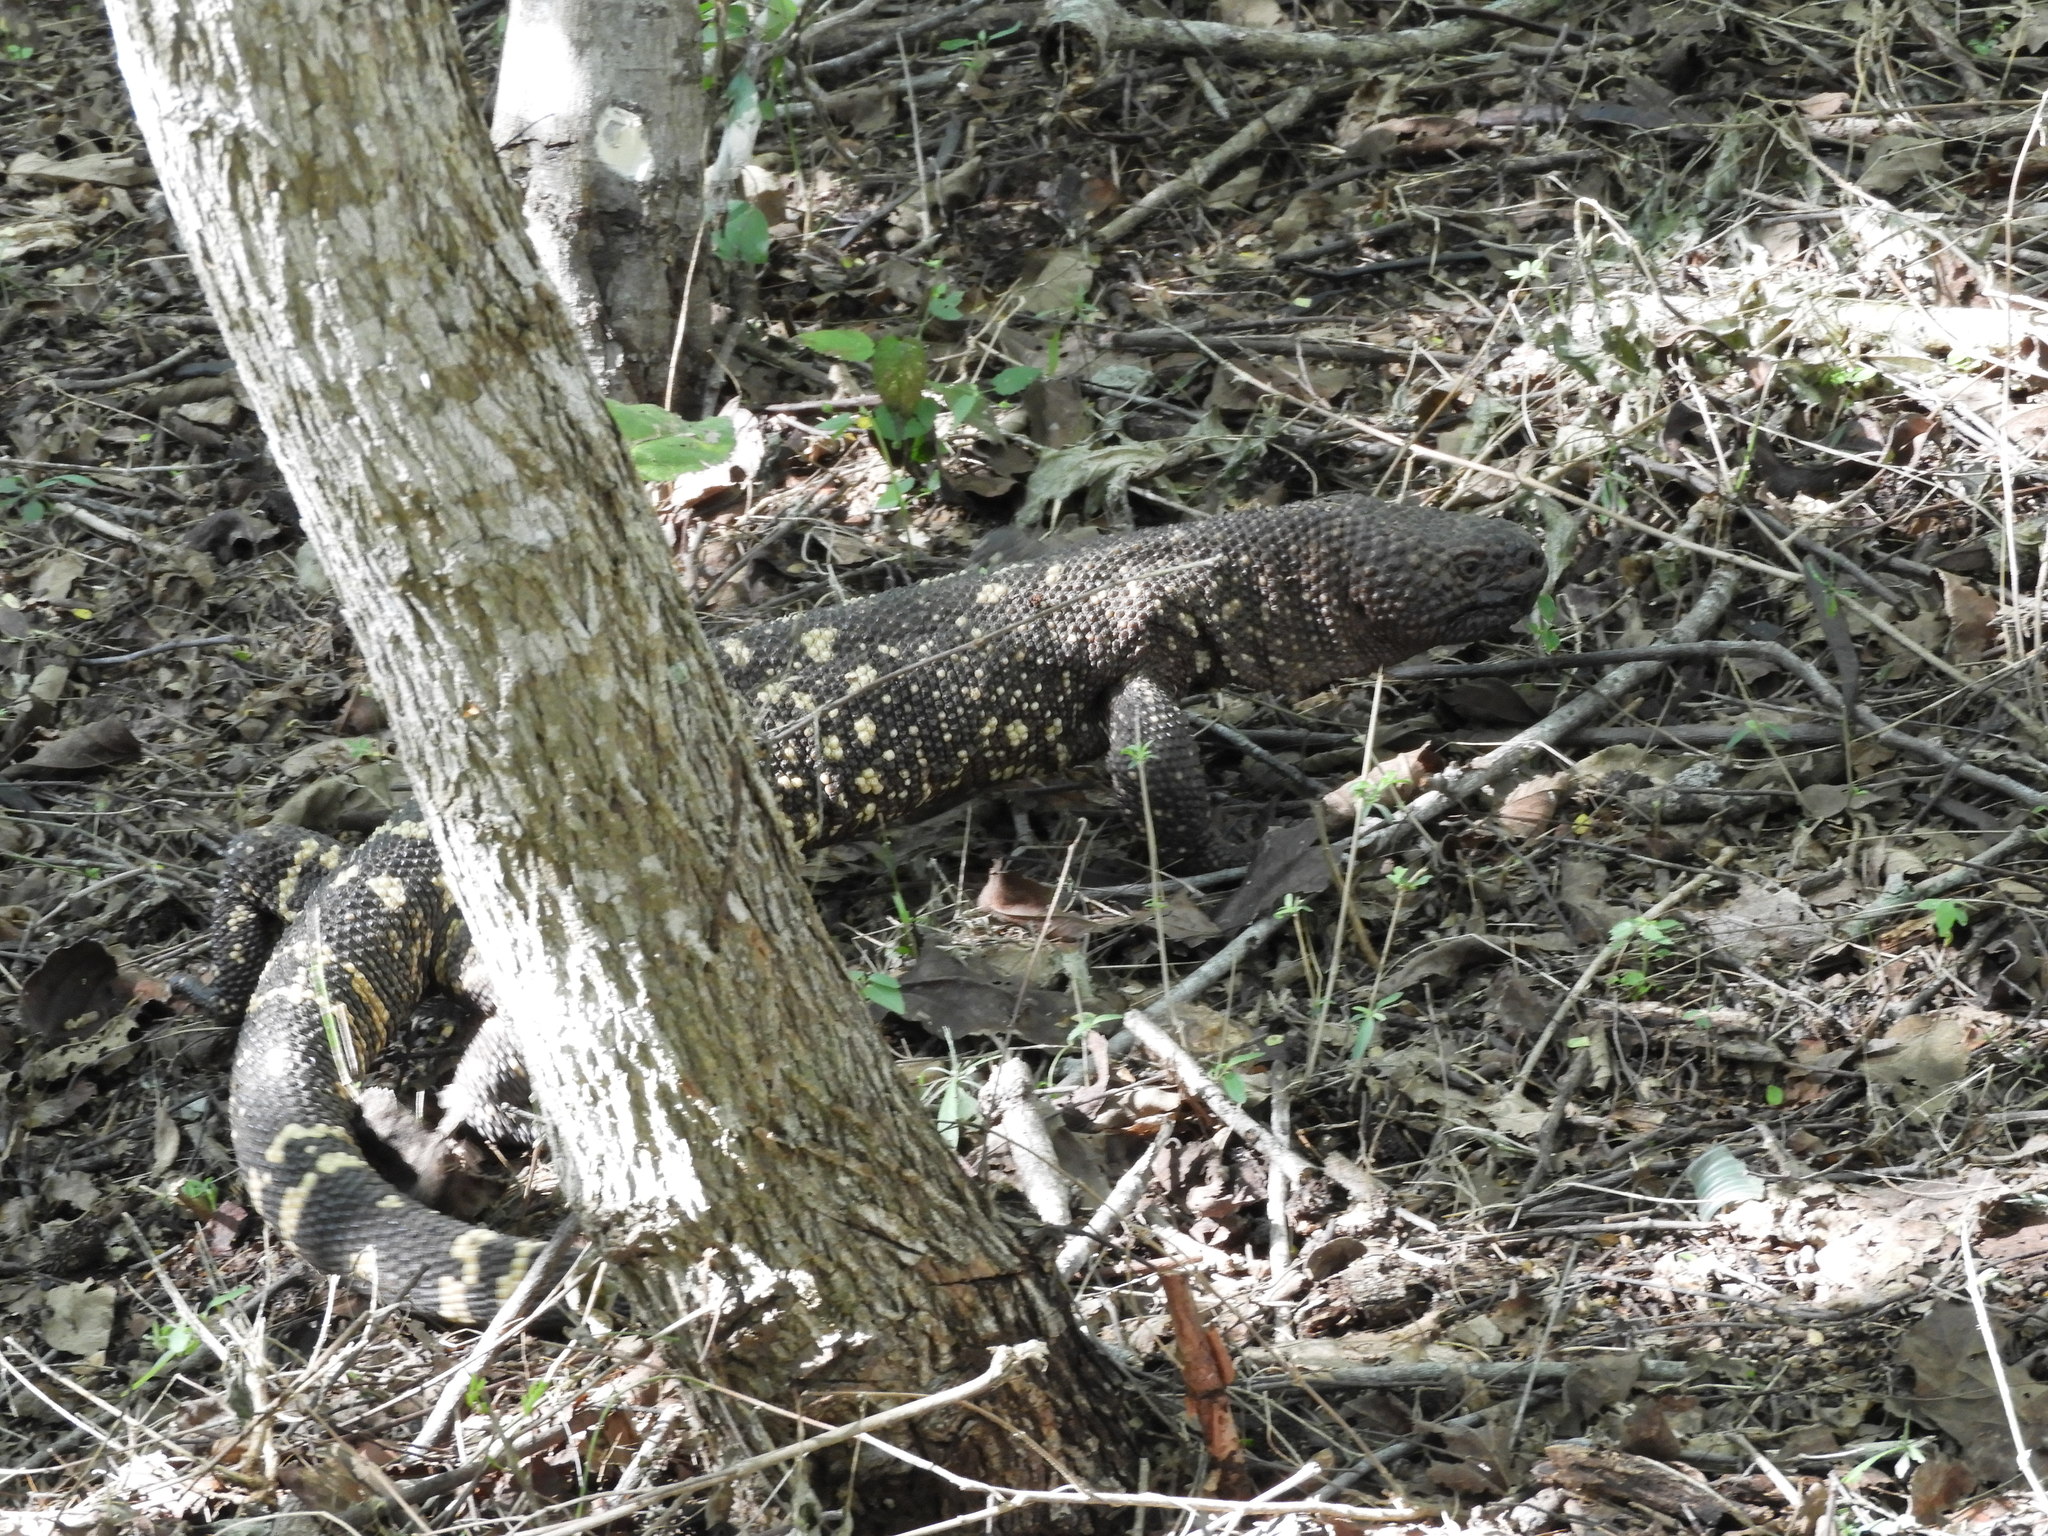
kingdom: Animalia
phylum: Chordata
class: Squamata
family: Helodermatidae
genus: Heloderma
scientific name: Heloderma horridum
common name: Mexican beaded lizard
